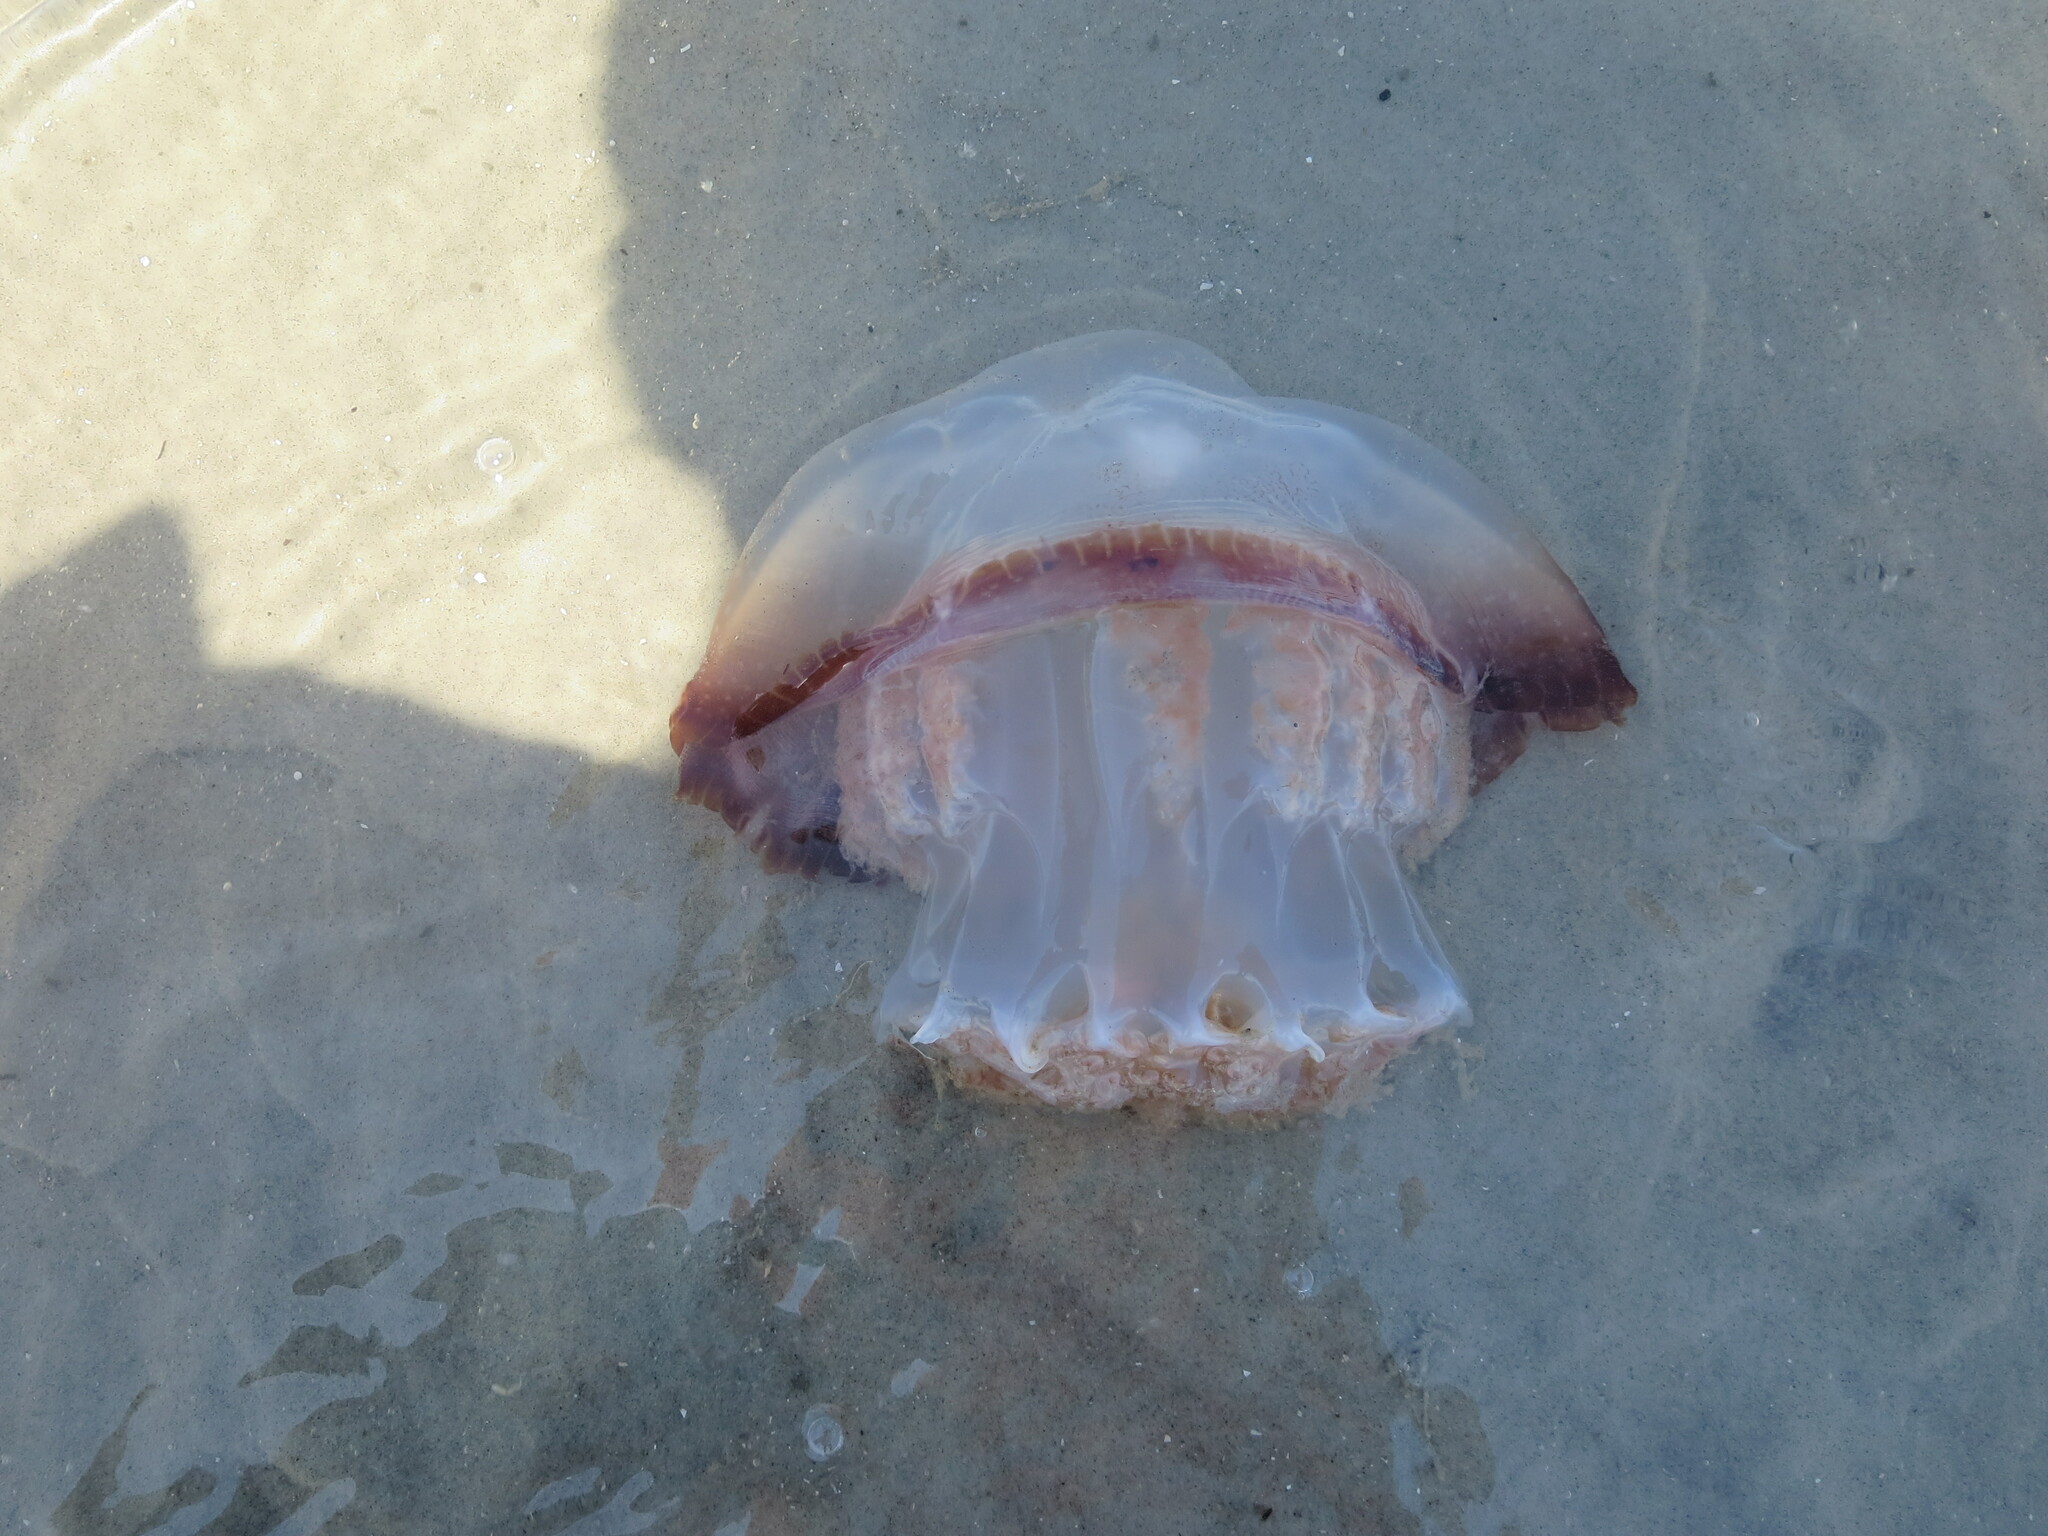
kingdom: Animalia
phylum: Cnidaria
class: Scyphozoa
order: Rhizostomeae
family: Stomolophidae
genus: Stomolophus
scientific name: Stomolophus meleagris
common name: Cabbagehead
